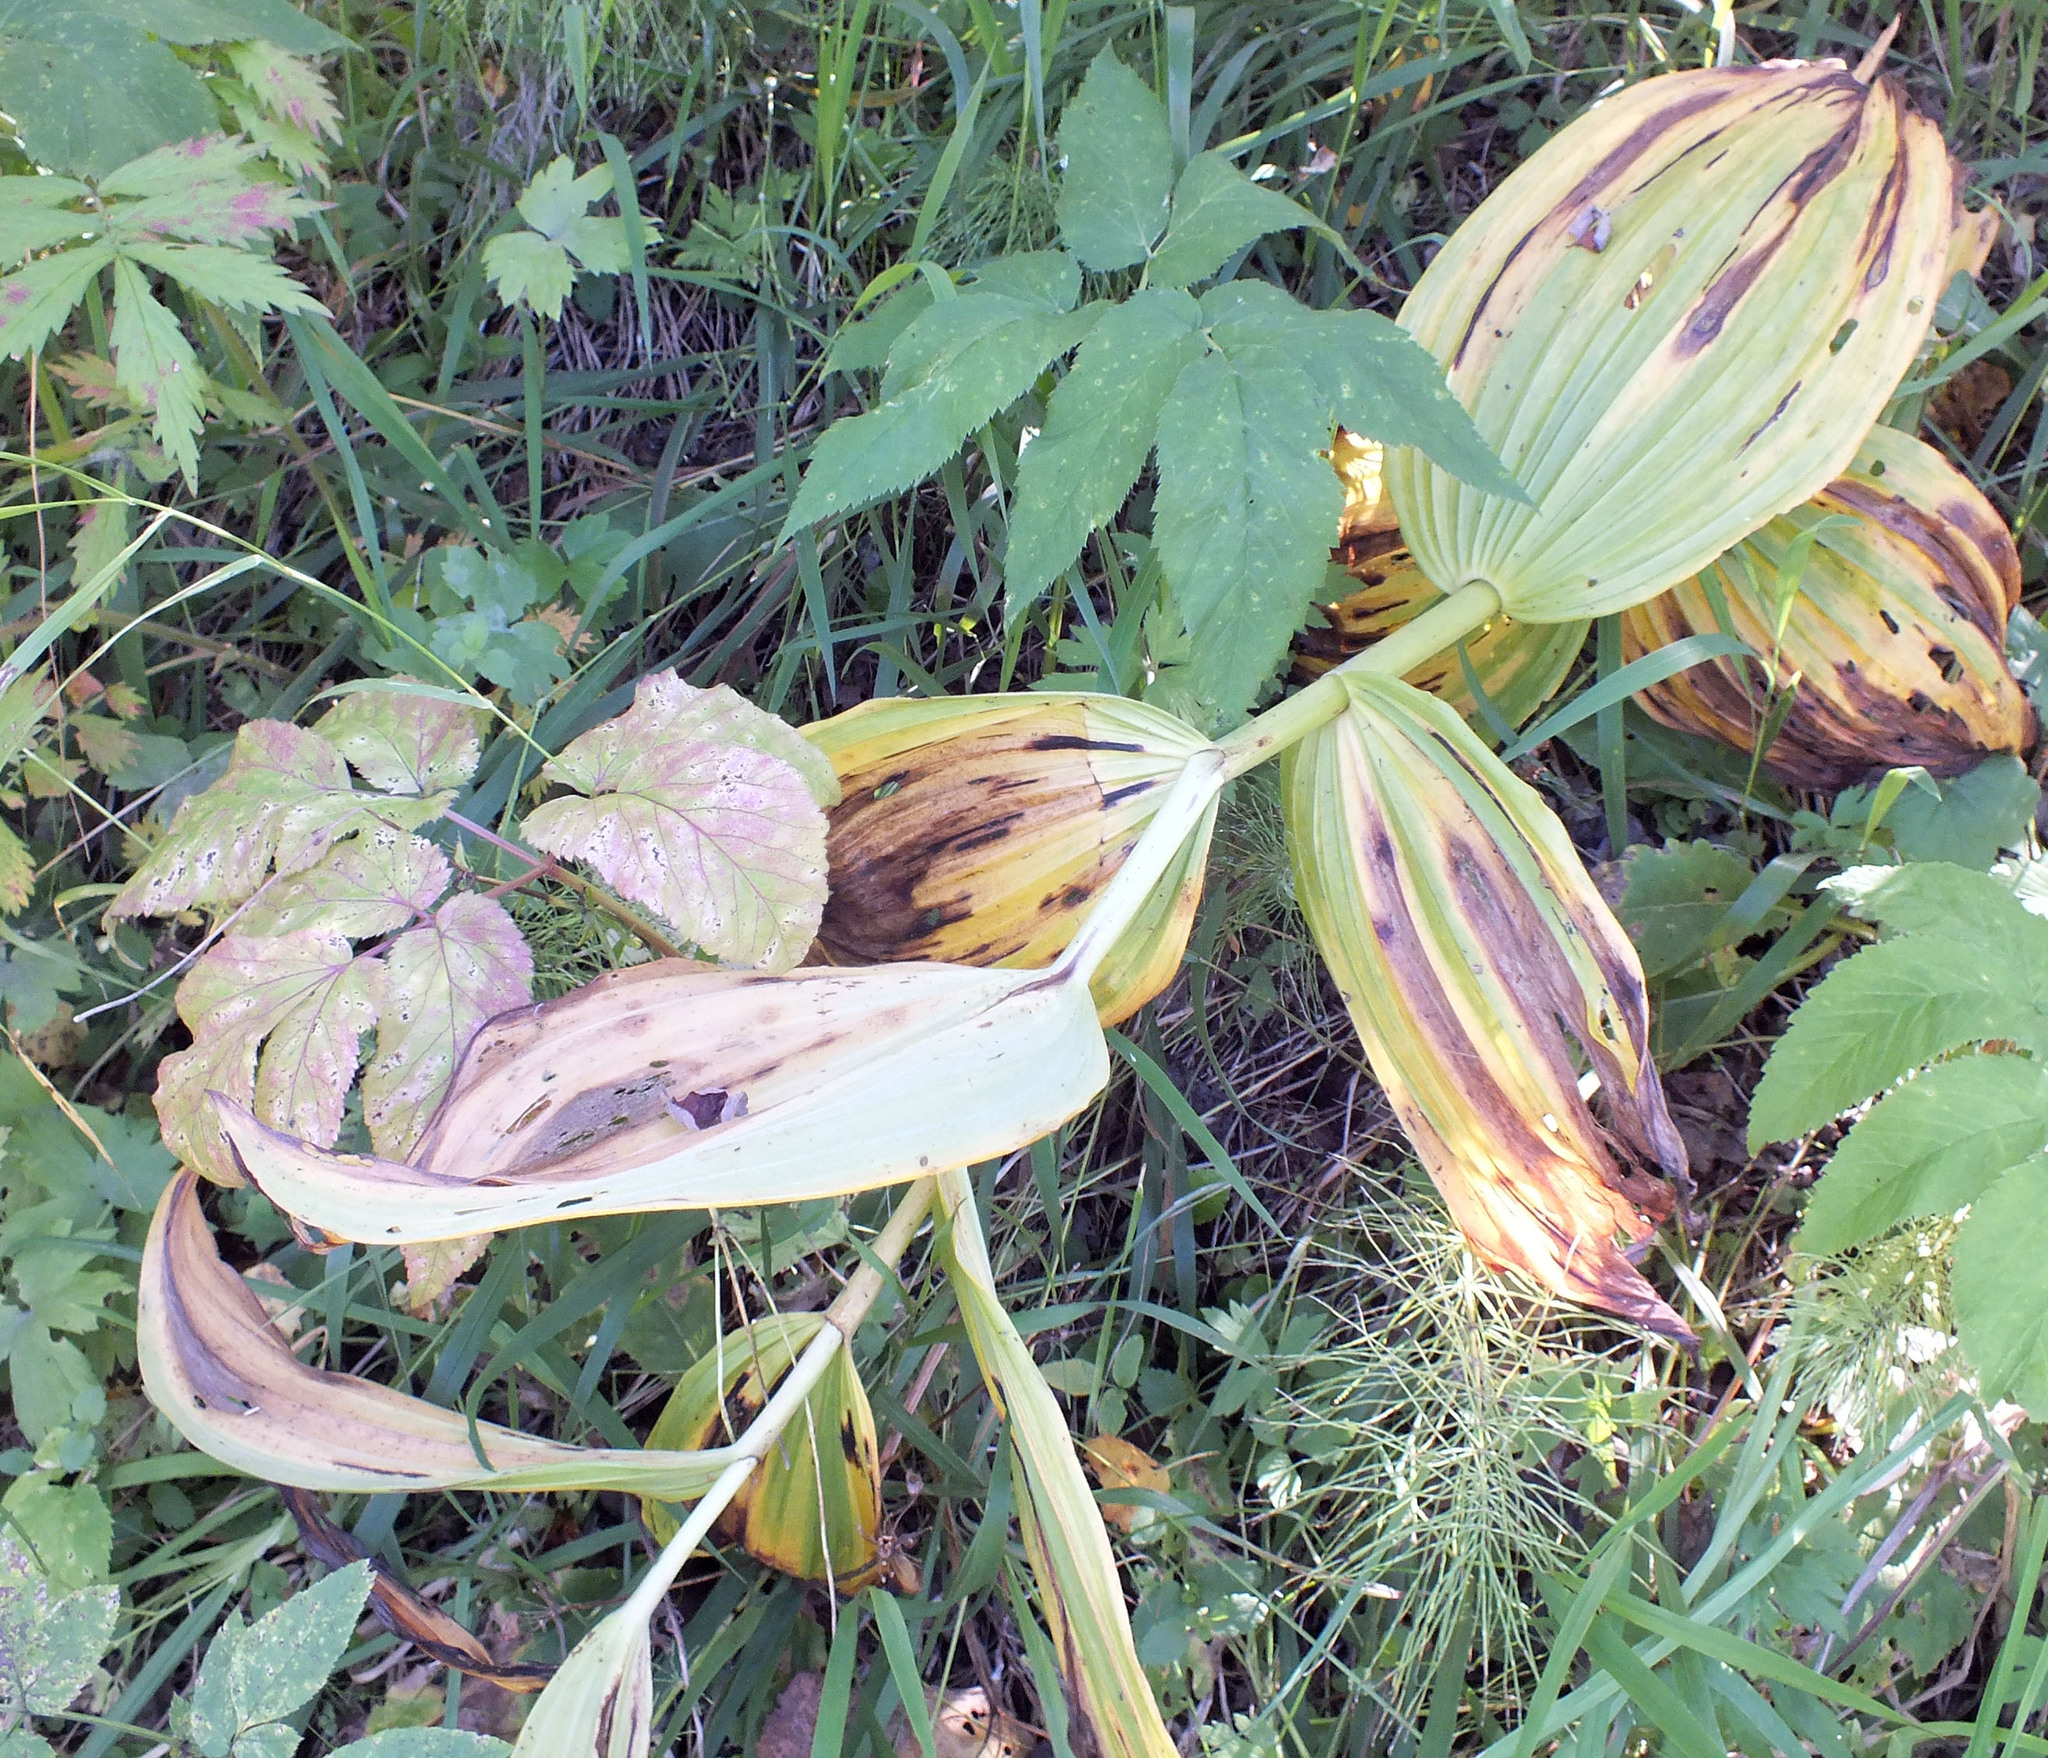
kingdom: Plantae
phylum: Tracheophyta
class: Liliopsida
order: Liliales
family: Melanthiaceae
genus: Veratrum
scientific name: Veratrum lobelianum
